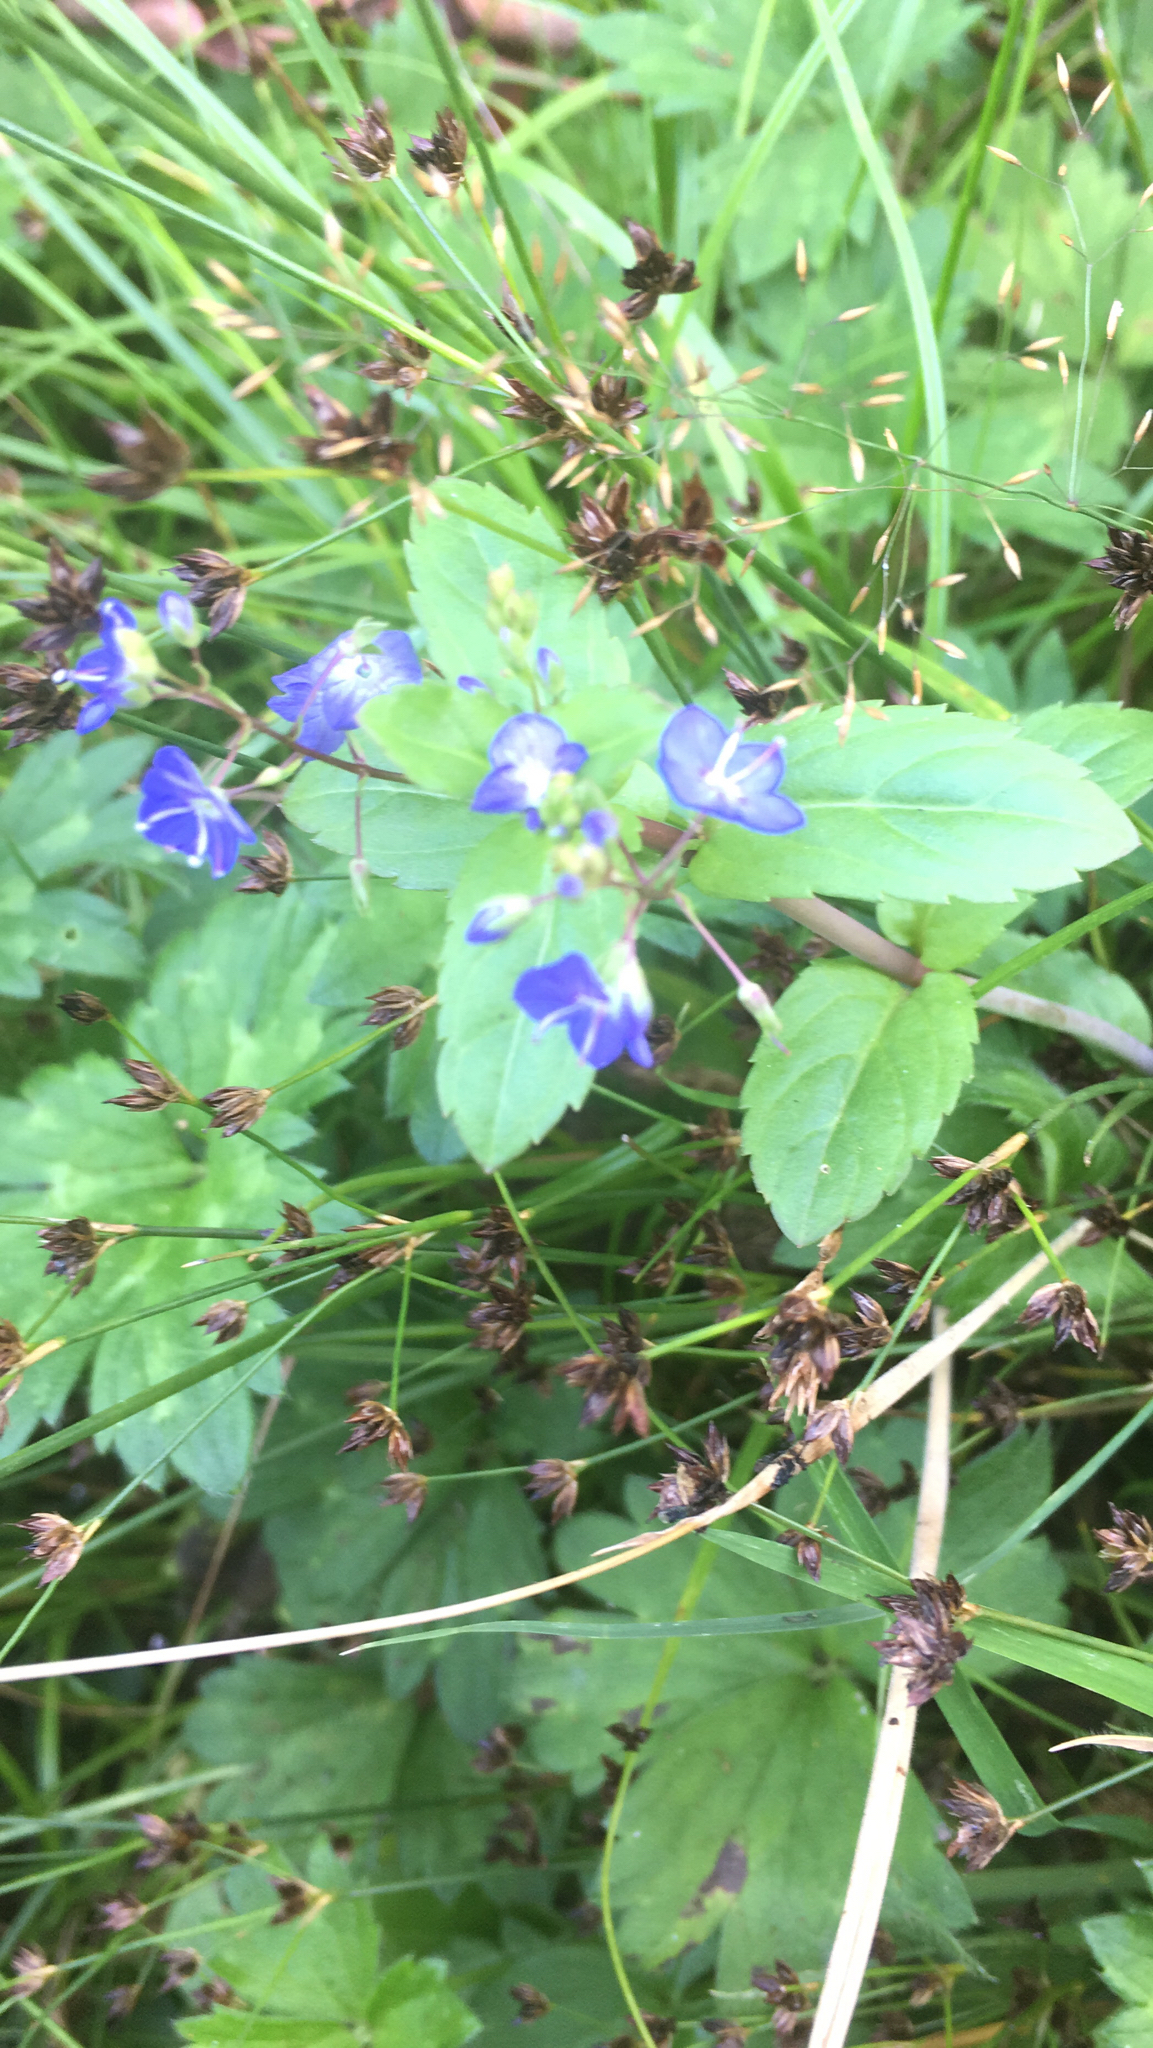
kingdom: Plantae
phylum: Tracheophyta
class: Magnoliopsida
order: Lamiales
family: Plantaginaceae
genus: Veronica
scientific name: Veronica americana
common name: American brooklime
